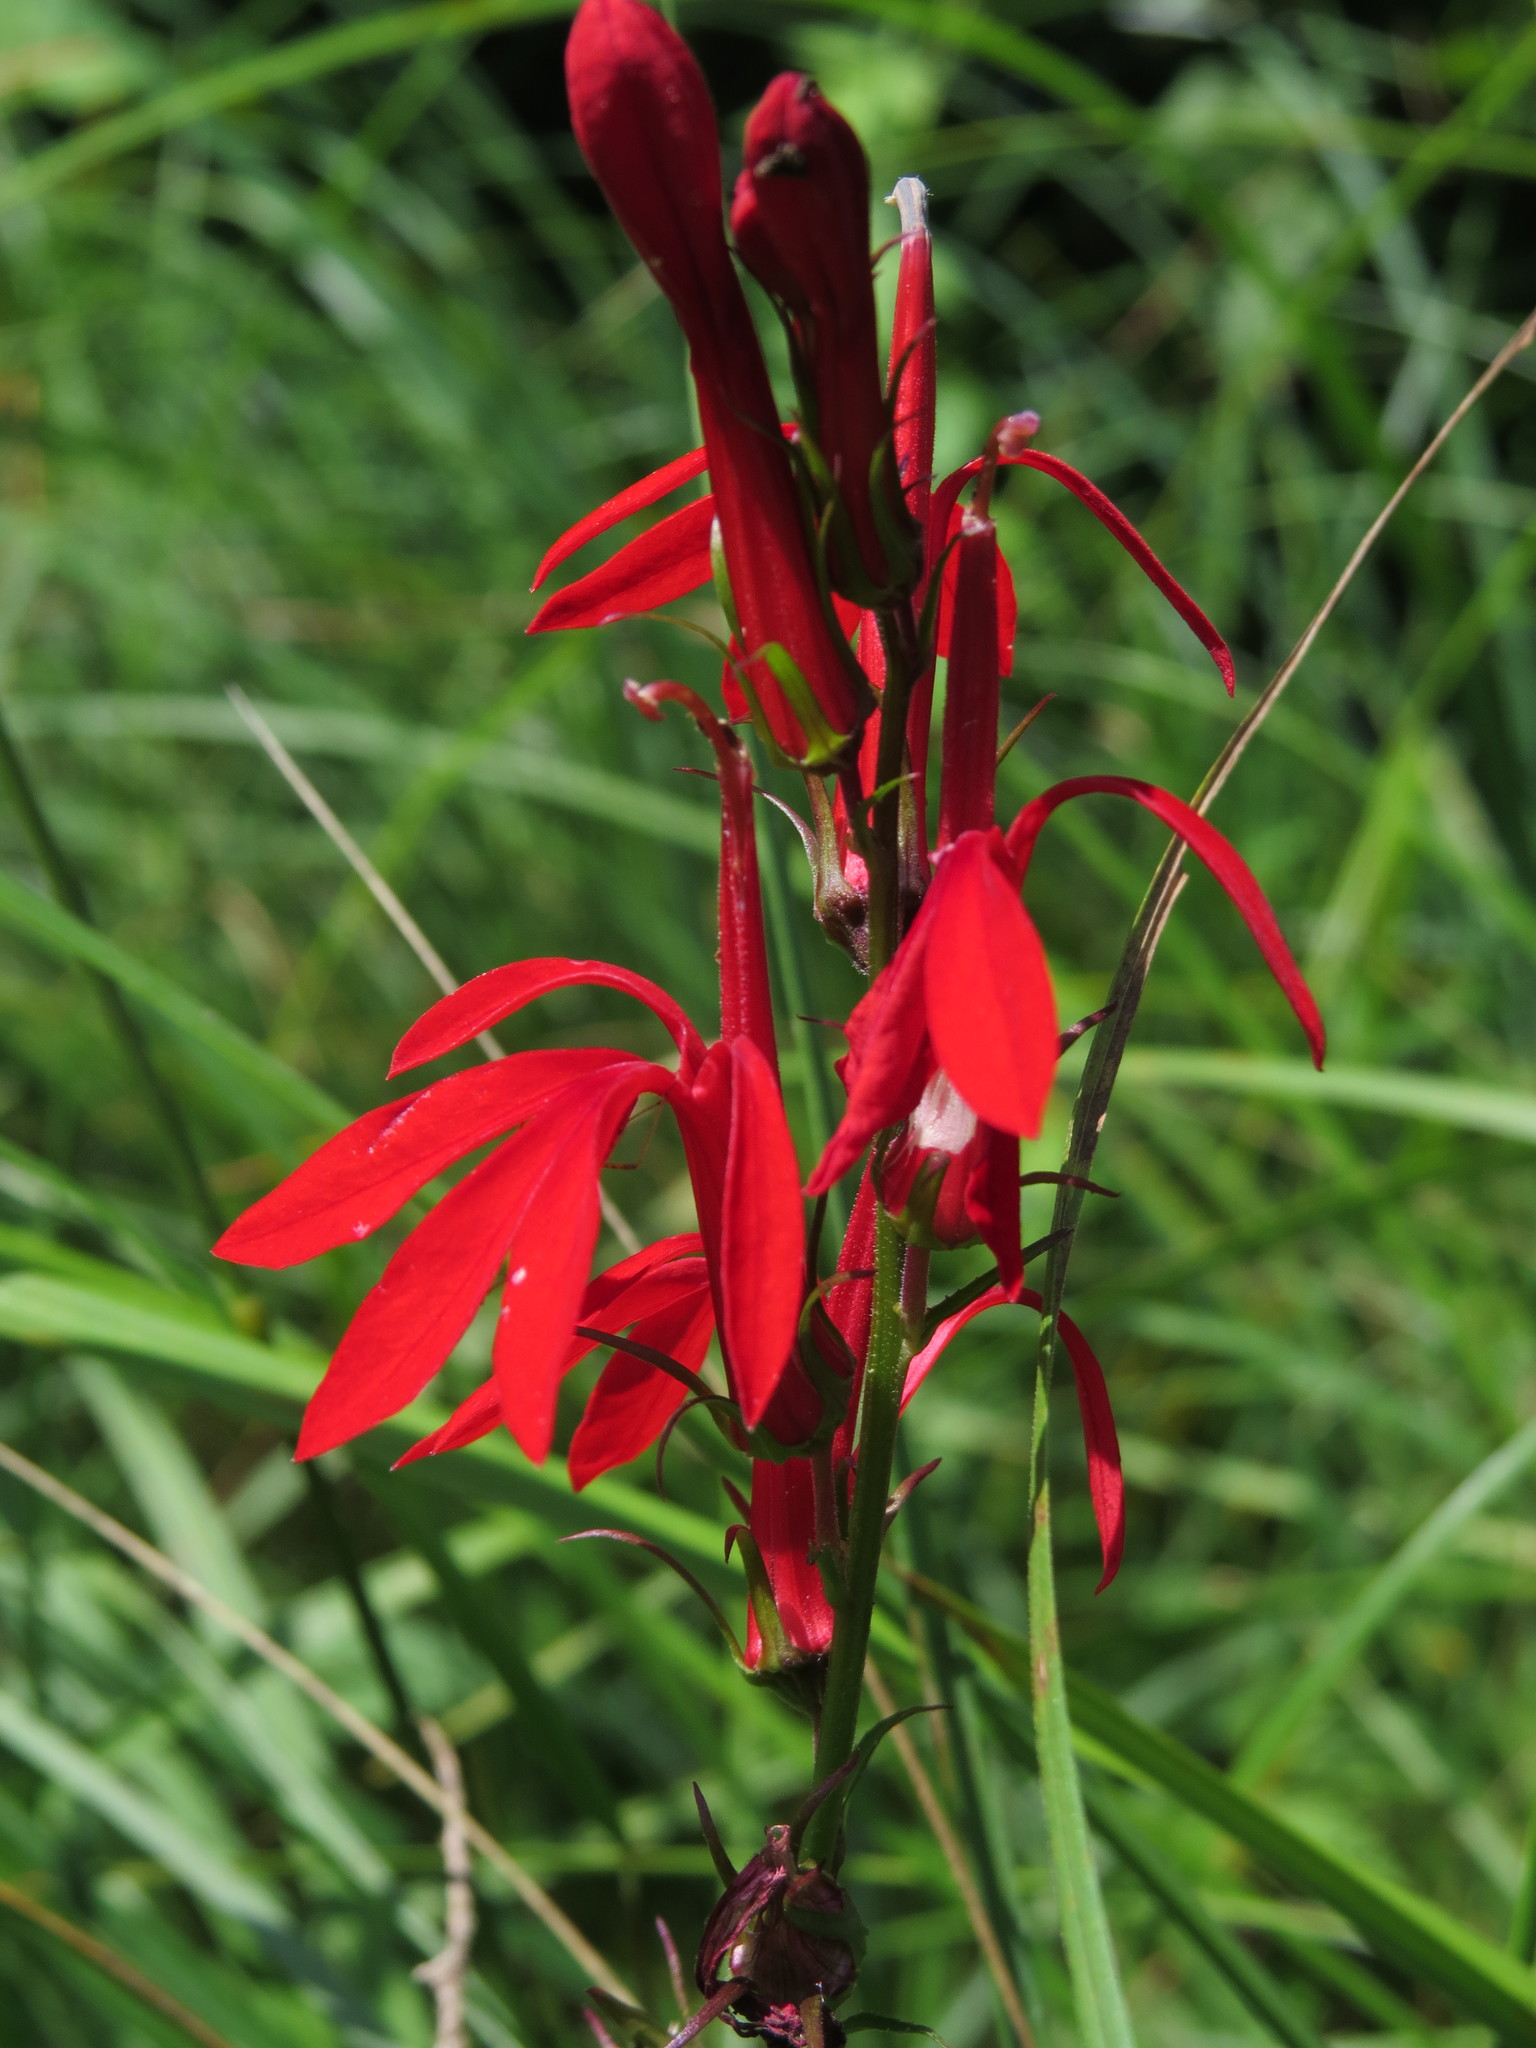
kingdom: Plantae
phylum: Tracheophyta
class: Magnoliopsida
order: Asterales
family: Campanulaceae
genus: Lobelia
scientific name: Lobelia cardinalis
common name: Cardinal flower
